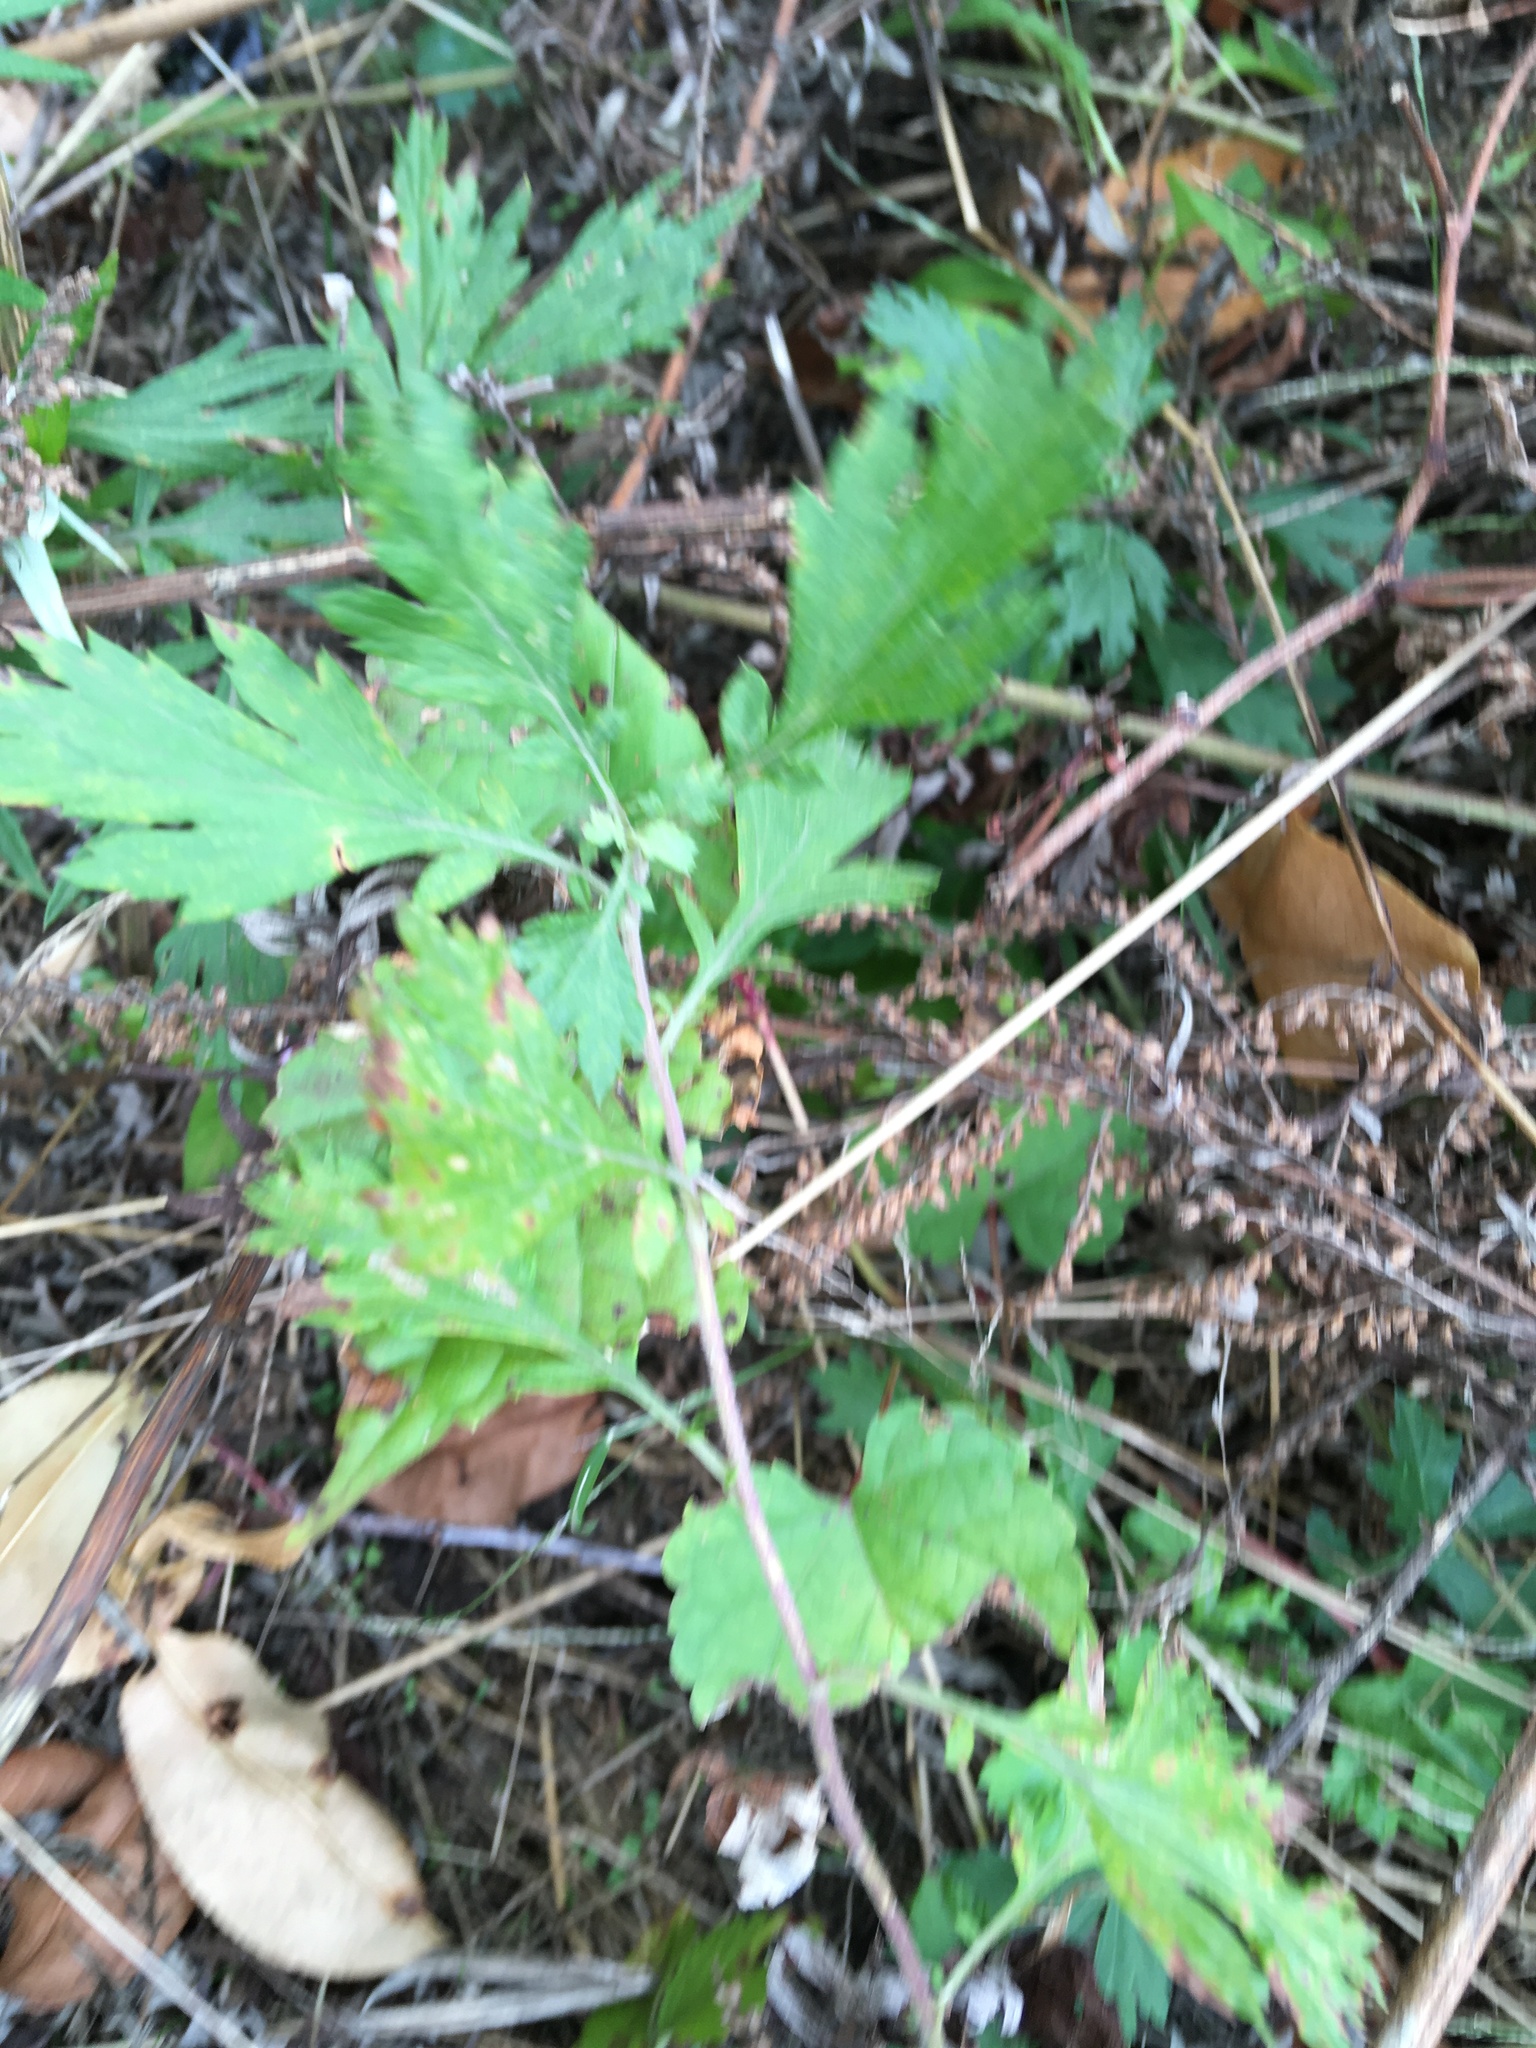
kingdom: Plantae
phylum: Tracheophyta
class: Magnoliopsida
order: Asterales
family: Asteraceae
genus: Artemisia
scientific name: Artemisia vulgaris
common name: Mugwort
